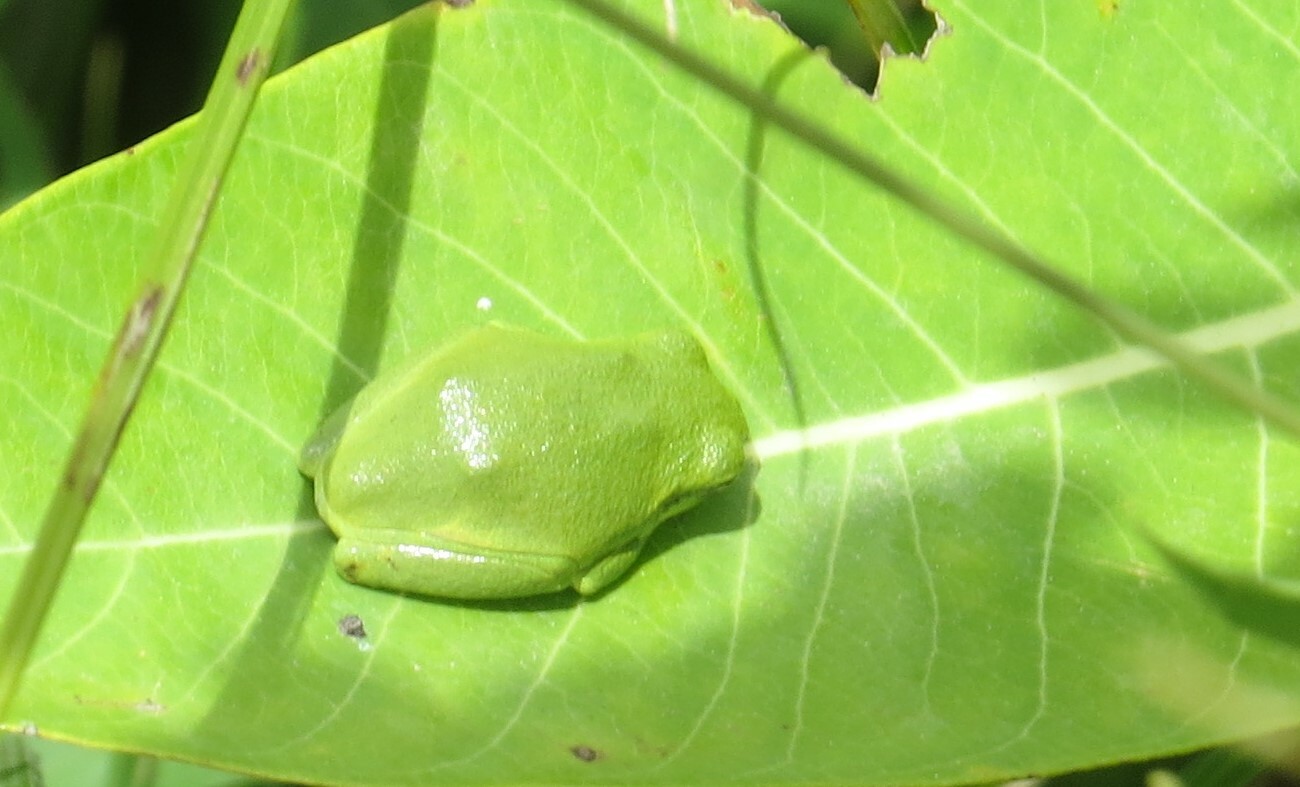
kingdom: Animalia
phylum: Chordata
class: Amphibia
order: Anura
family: Hylidae
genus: Hyla
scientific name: Hyla
